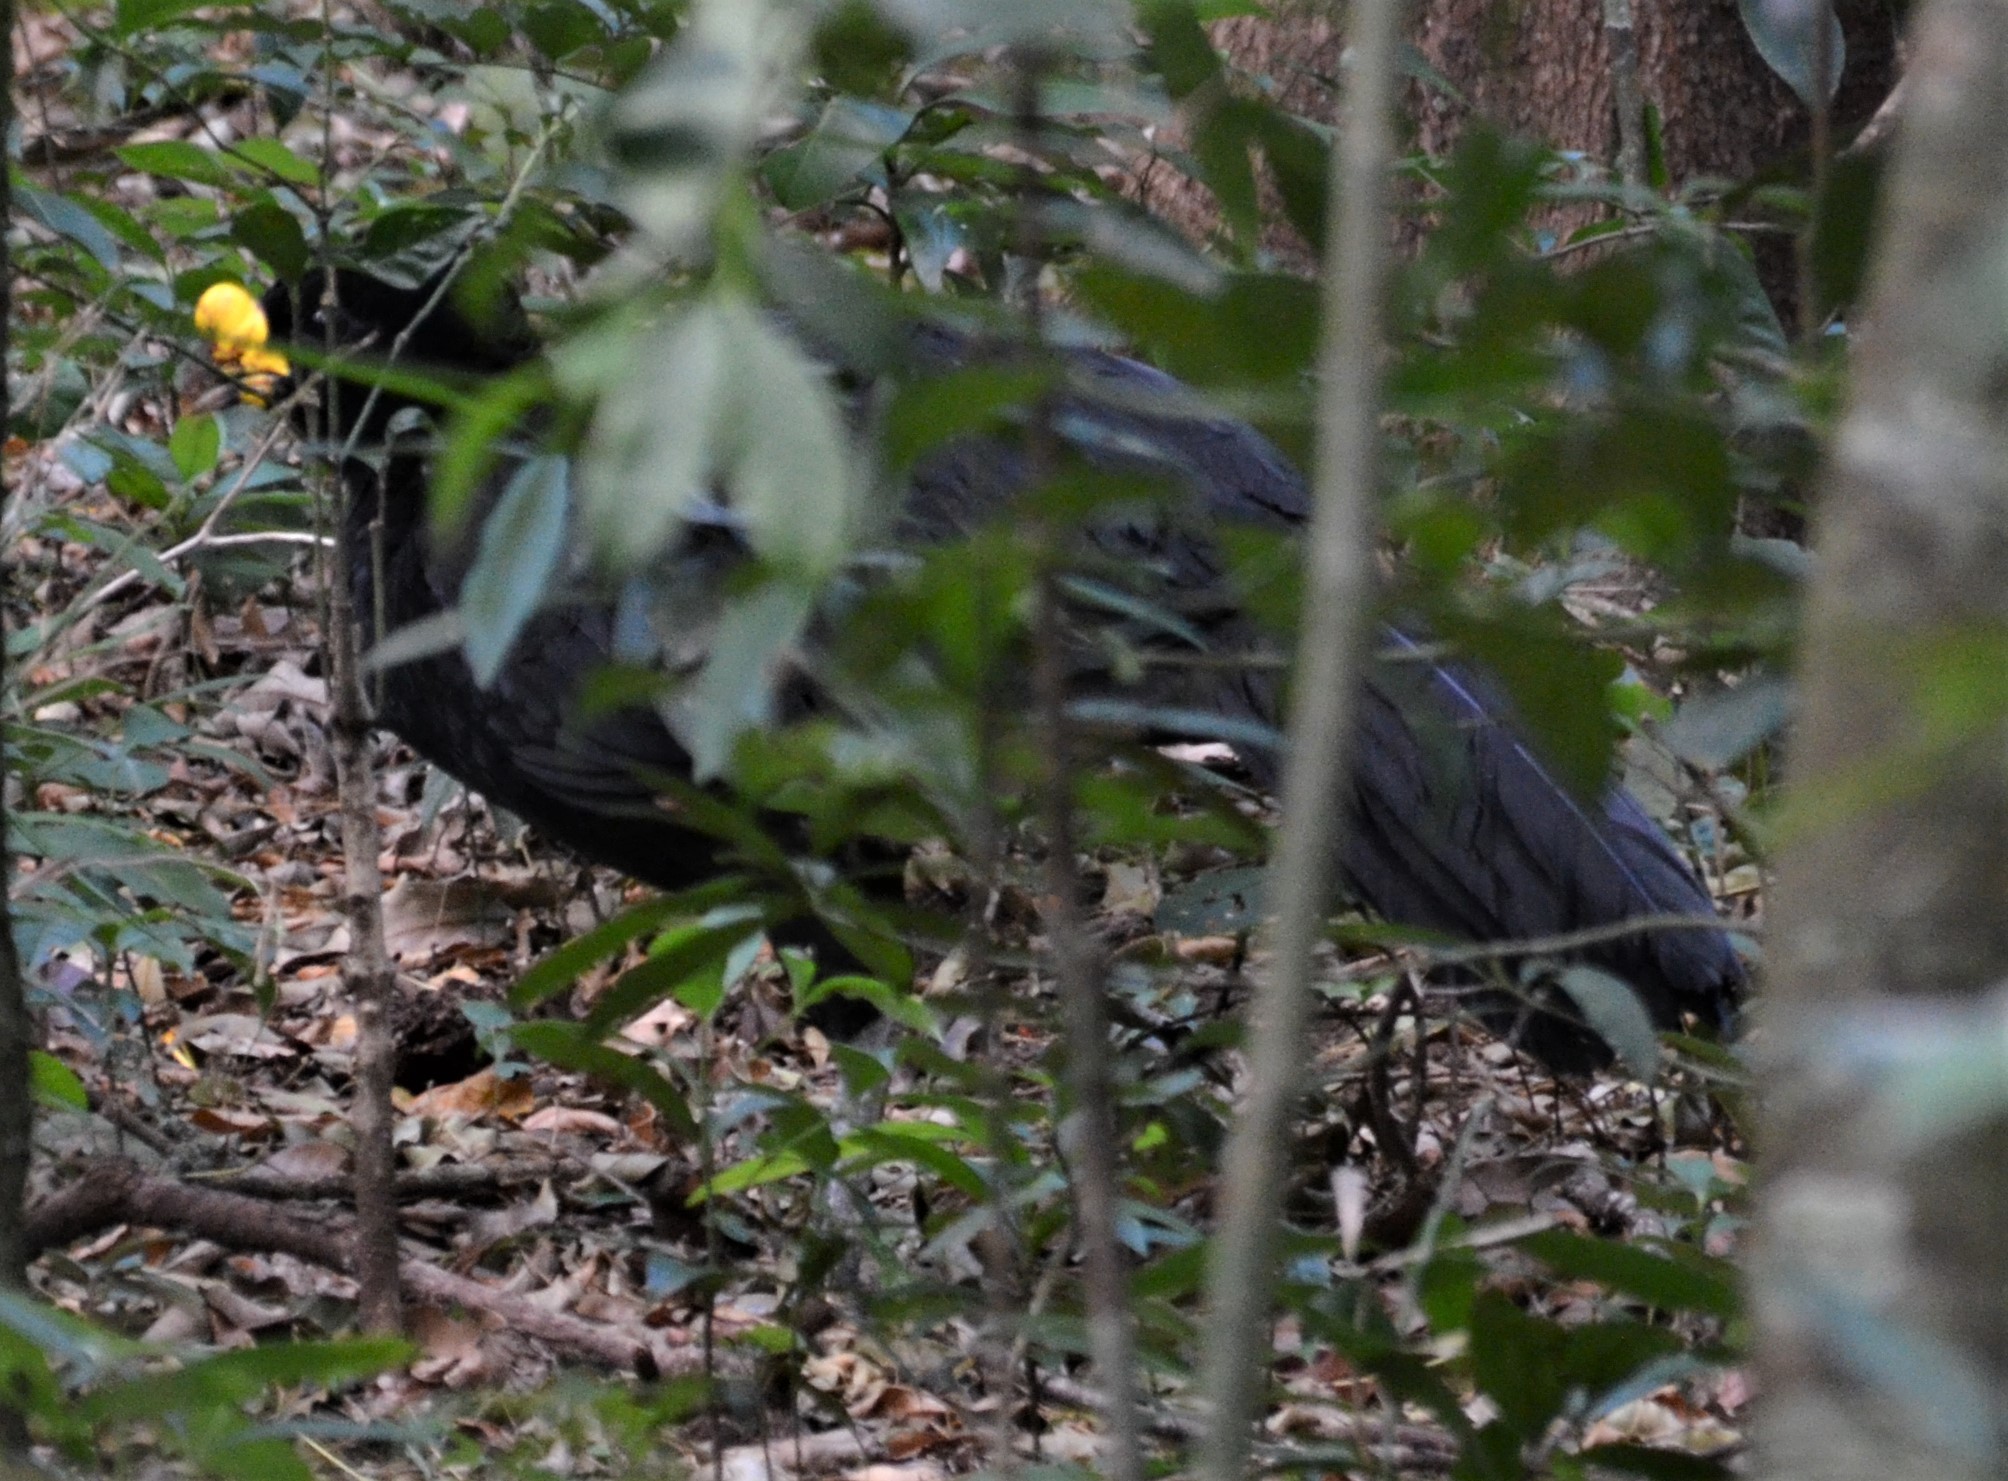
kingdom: Animalia
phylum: Chordata
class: Aves
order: Galliformes
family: Cracidae
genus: Crax
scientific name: Crax rubra
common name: Great curassow
